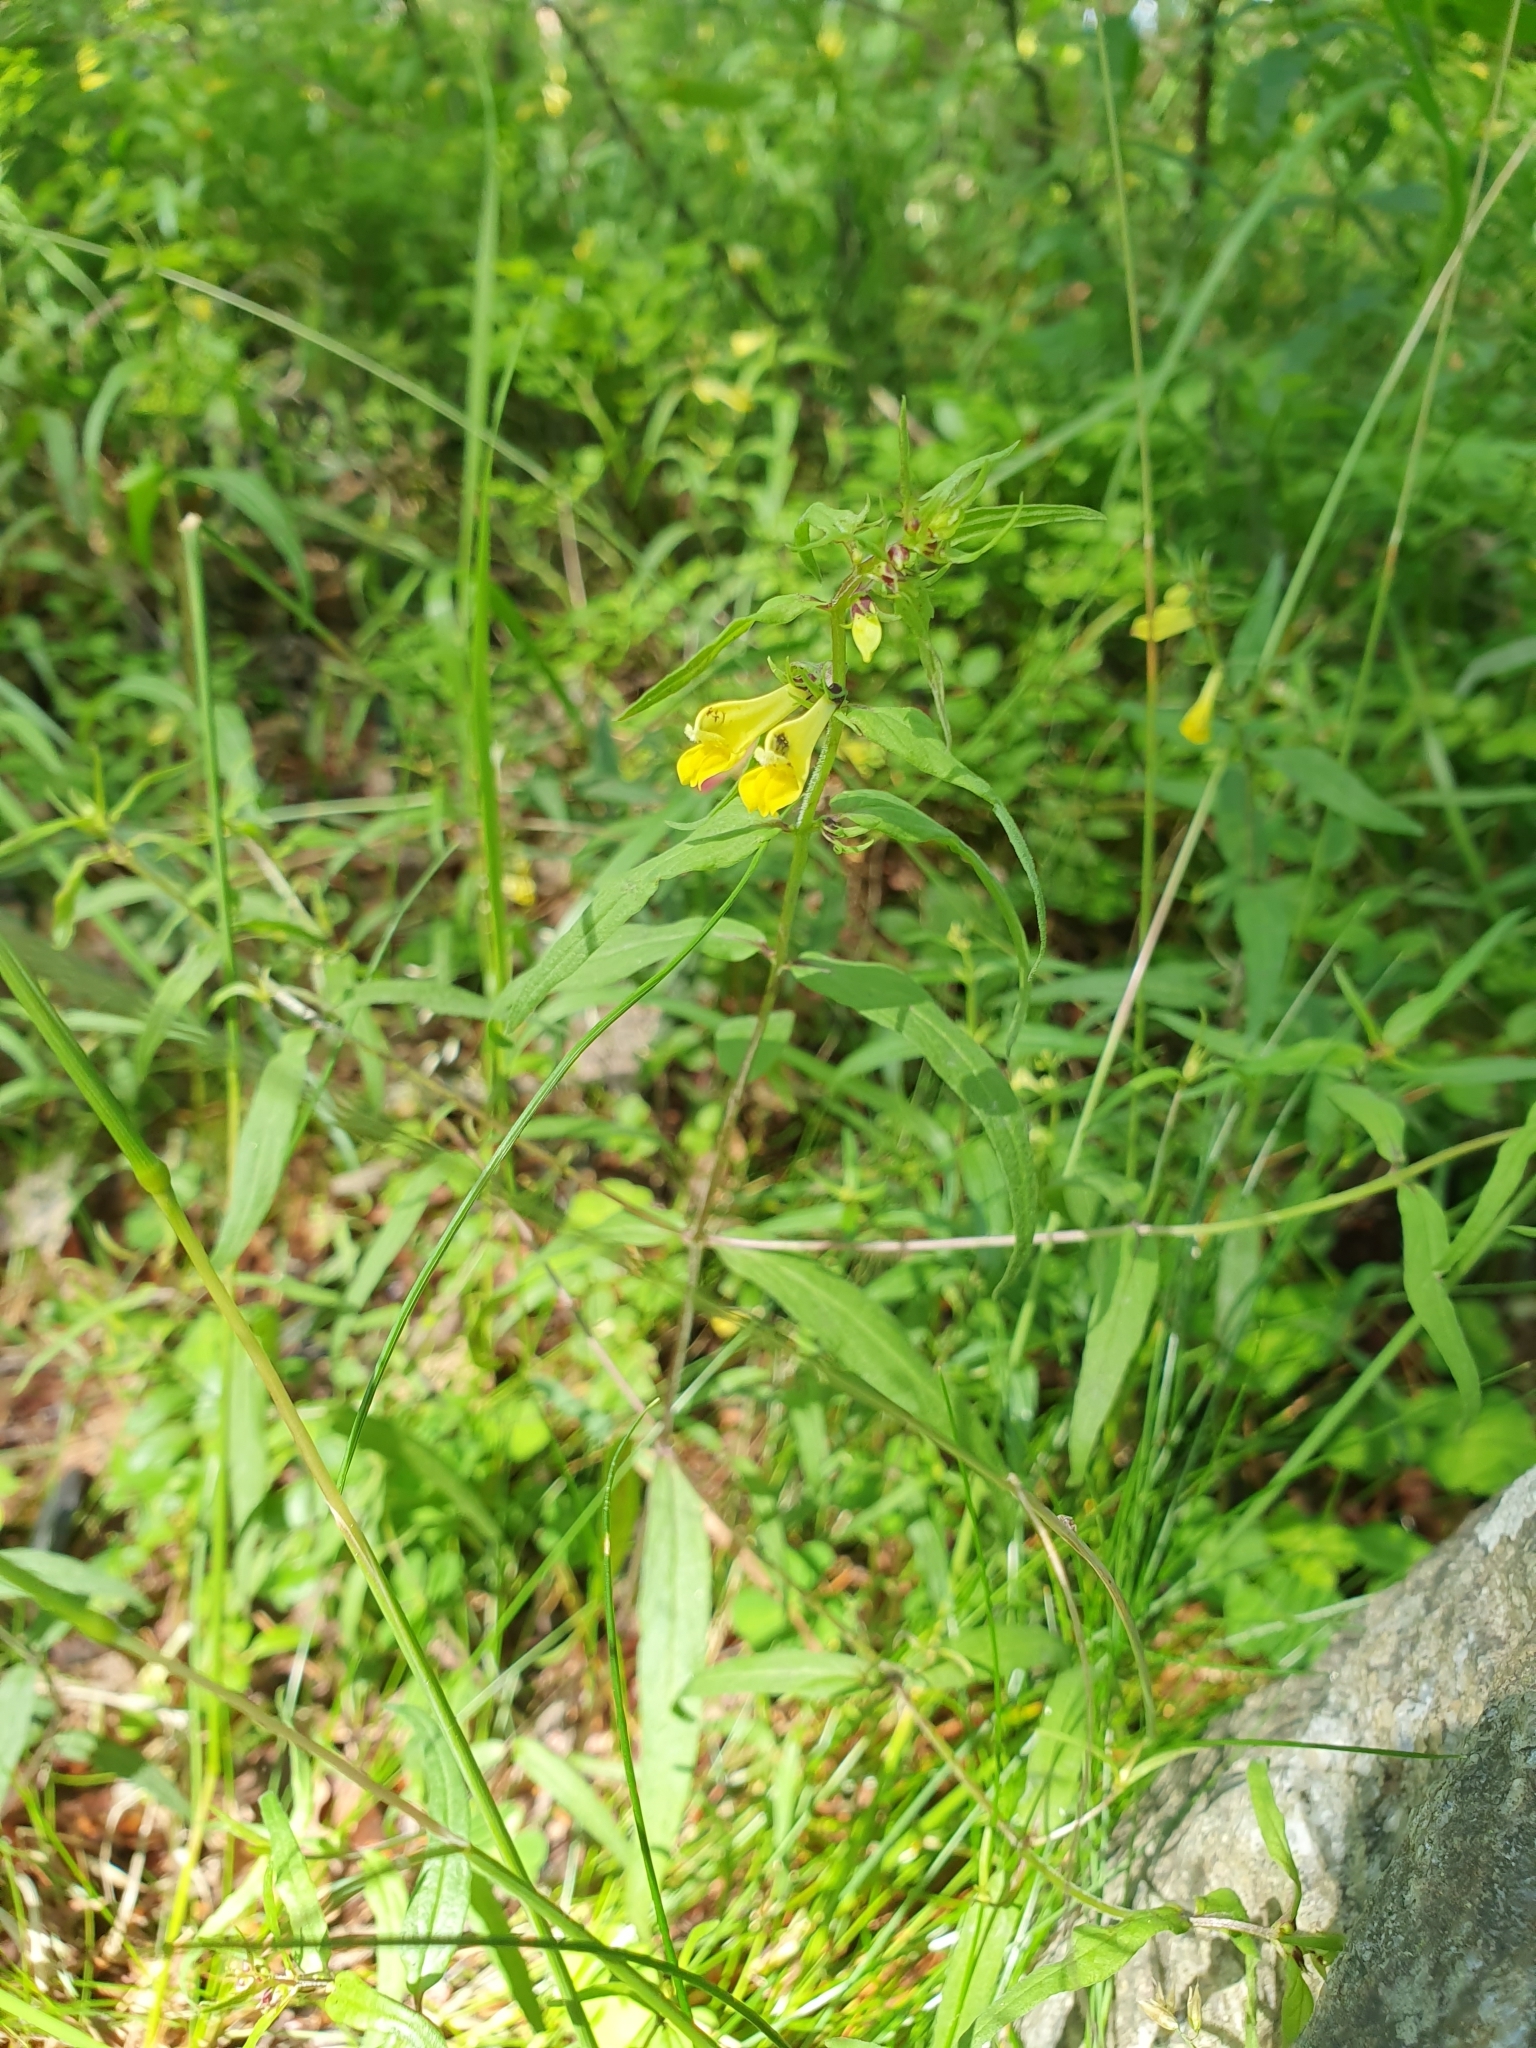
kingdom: Plantae
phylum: Tracheophyta
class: Magnoliopsida
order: Lamiales
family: Orobanchaceae
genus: Melampyrum
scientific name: Melampyrum pratense
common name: Common cow-wheat
